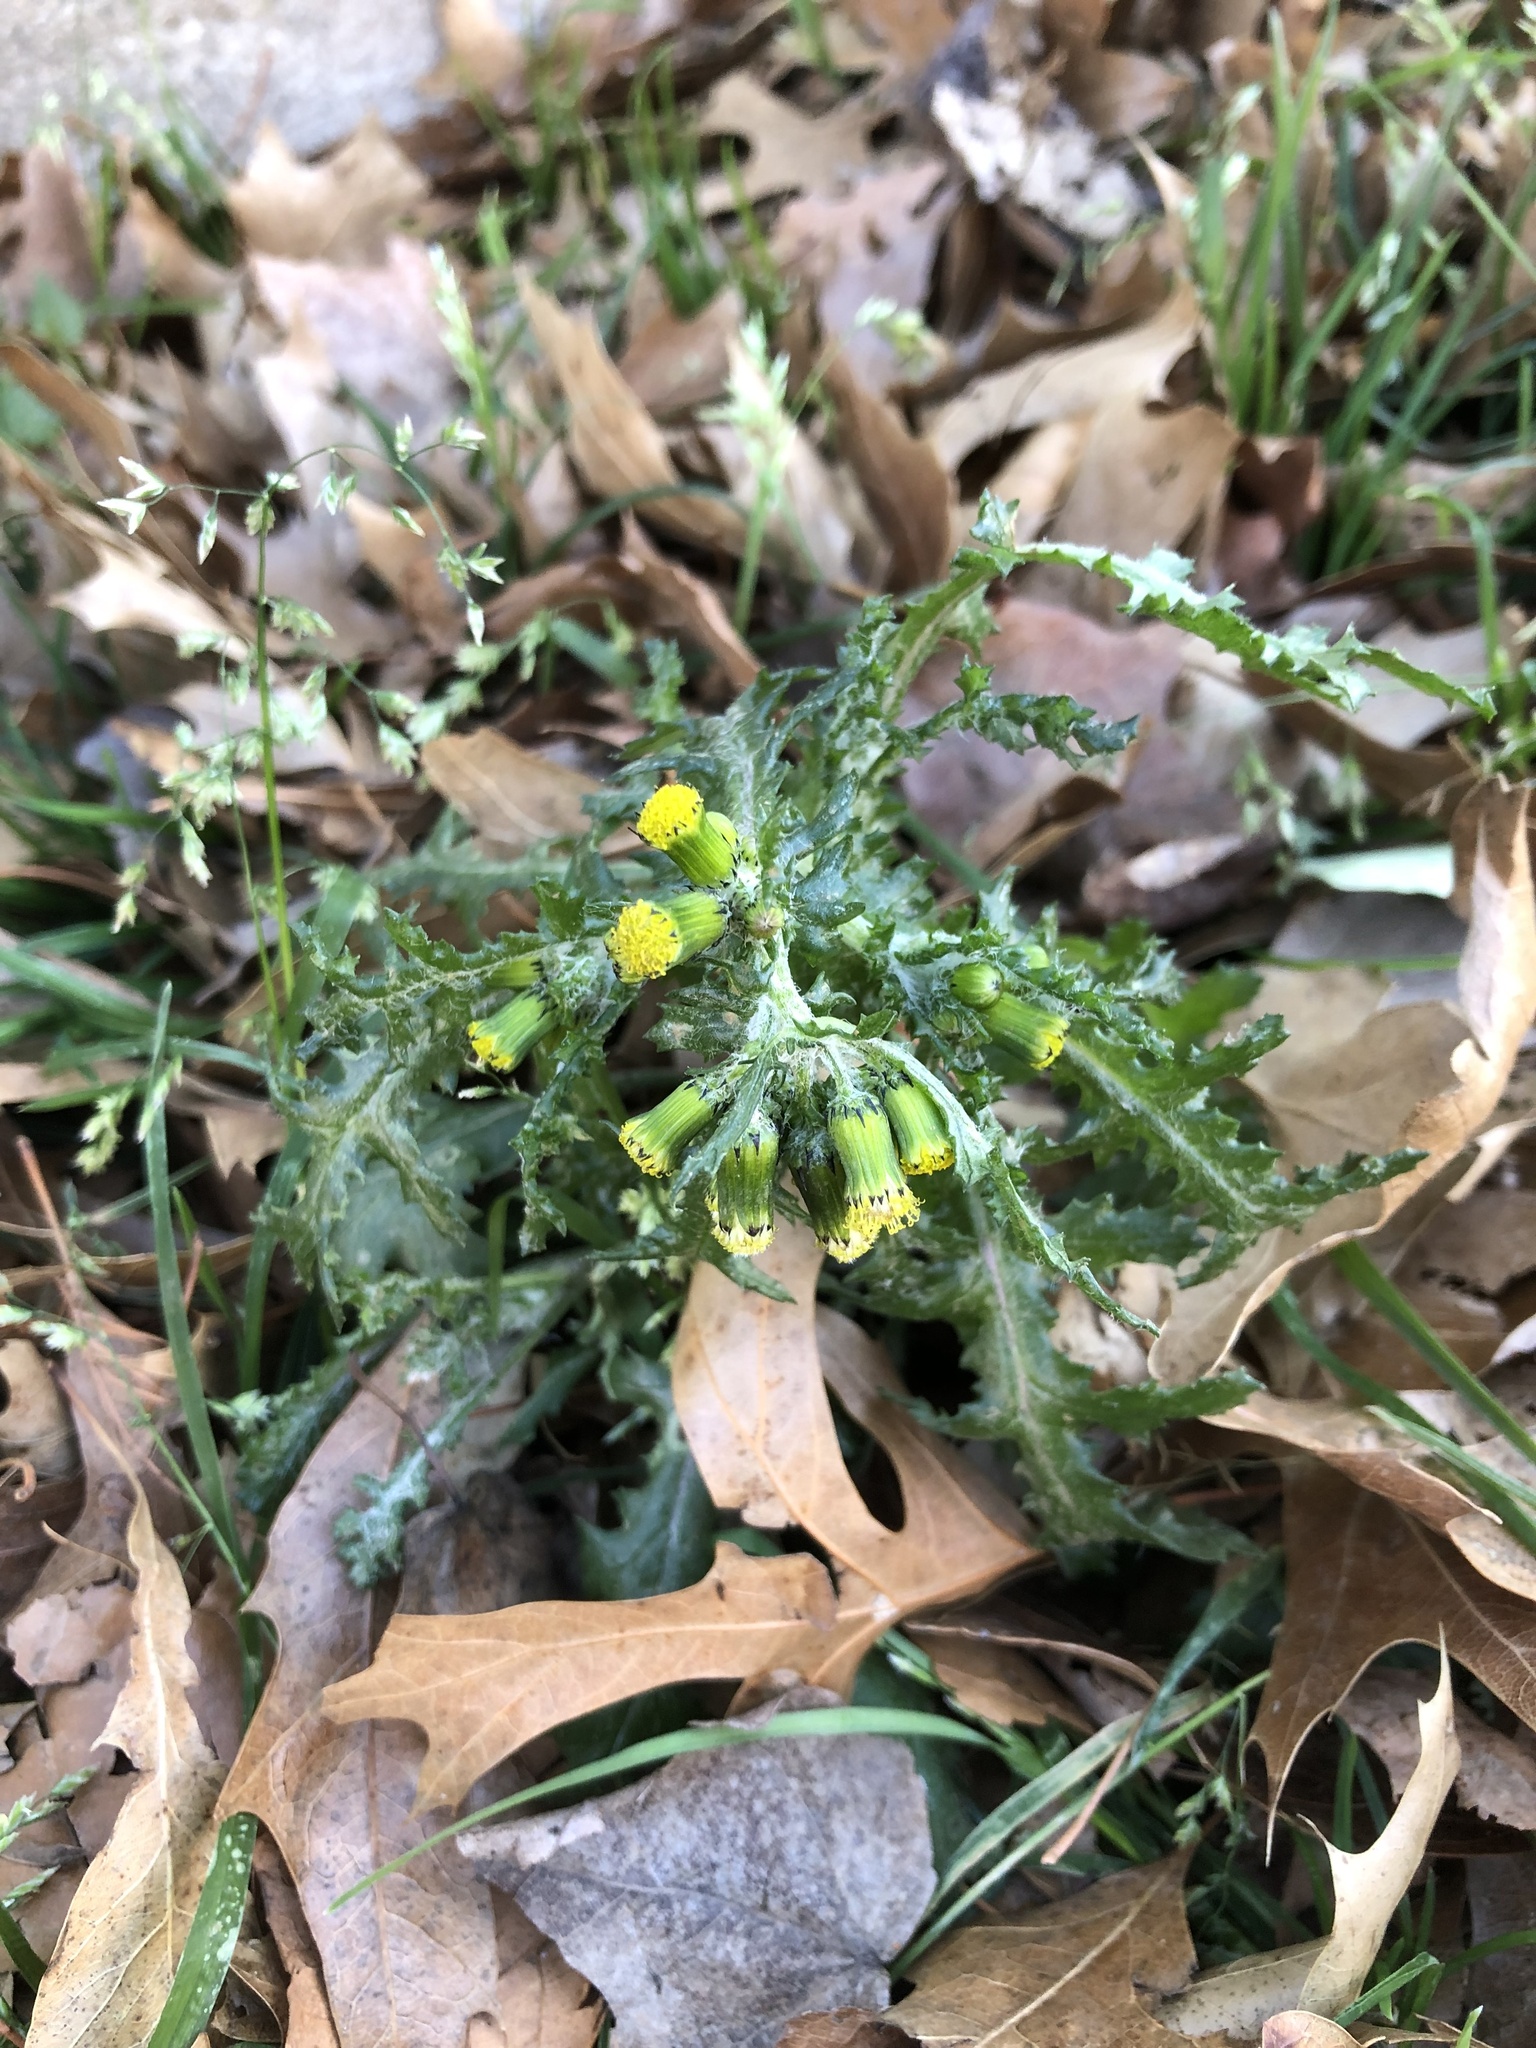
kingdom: Plantae
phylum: Tracheophyta
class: Magnoliopsida
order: Asterales
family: Asteraceae
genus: Senecio
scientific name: Senecio vulgaris
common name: Old-man-in-the-spring
